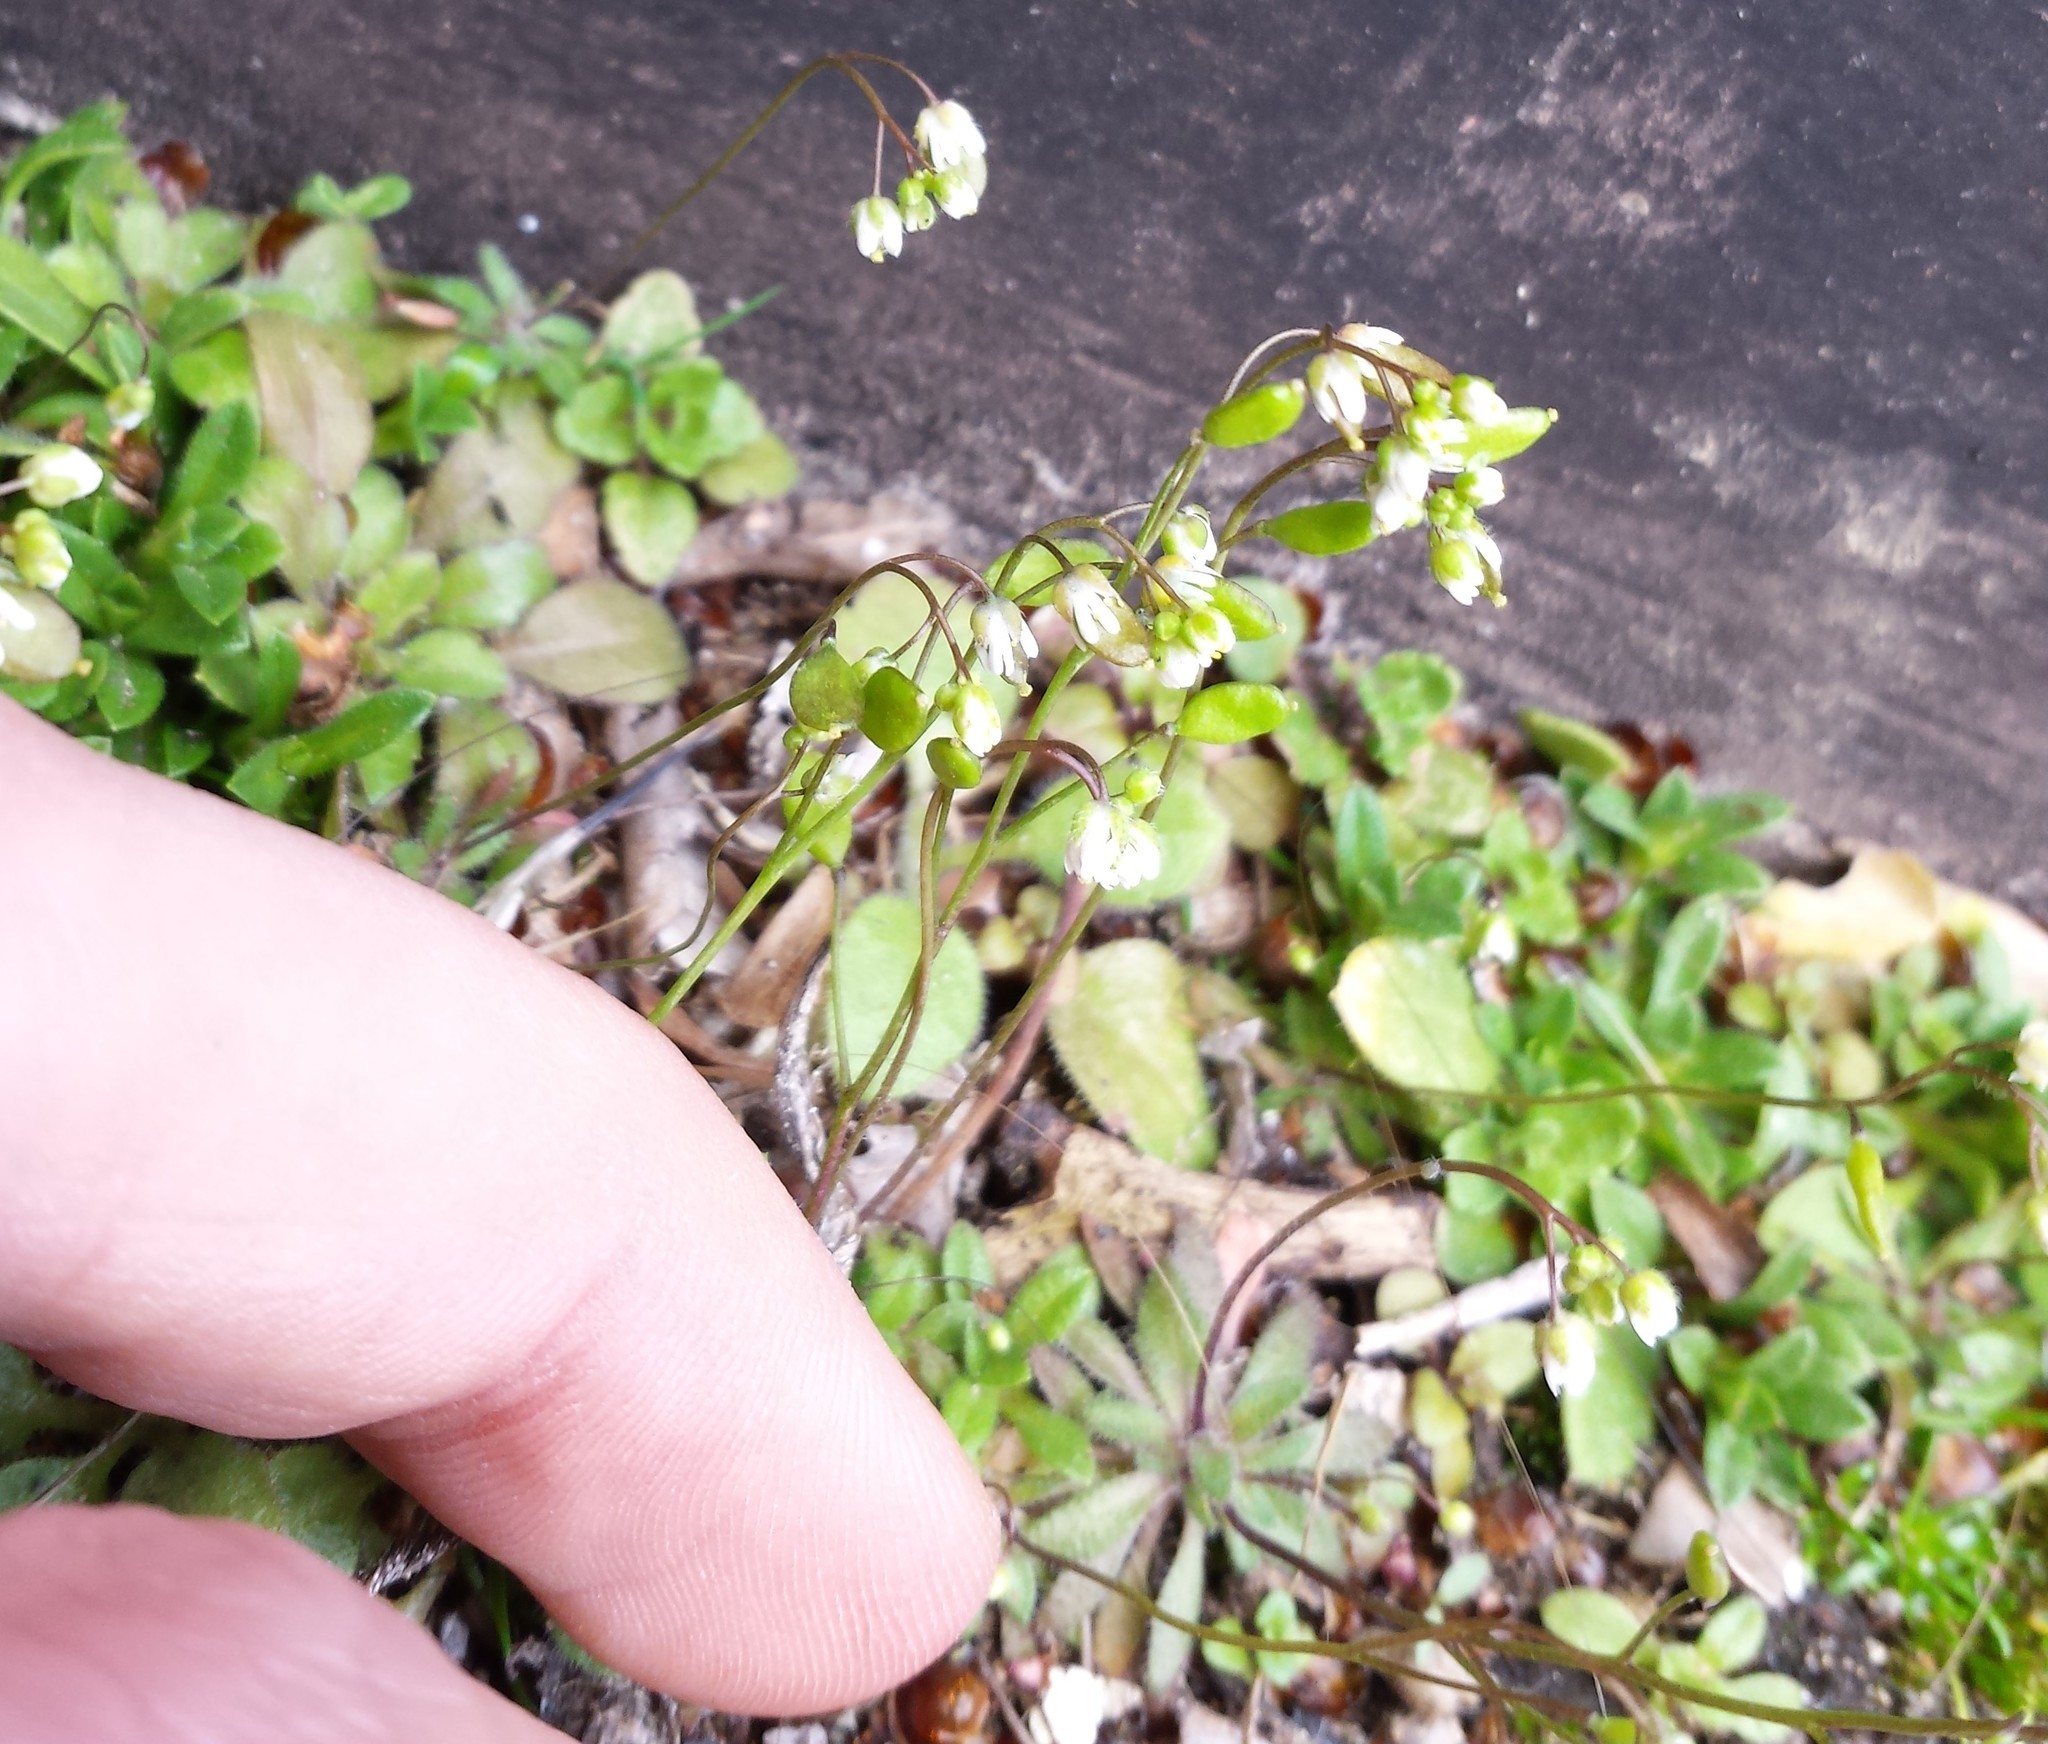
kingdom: Plantae
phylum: Tracheophyta
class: Magnoliopsida
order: Brassicales
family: Brassicaceae
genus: Draba
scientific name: Draba verna
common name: Spring draba
